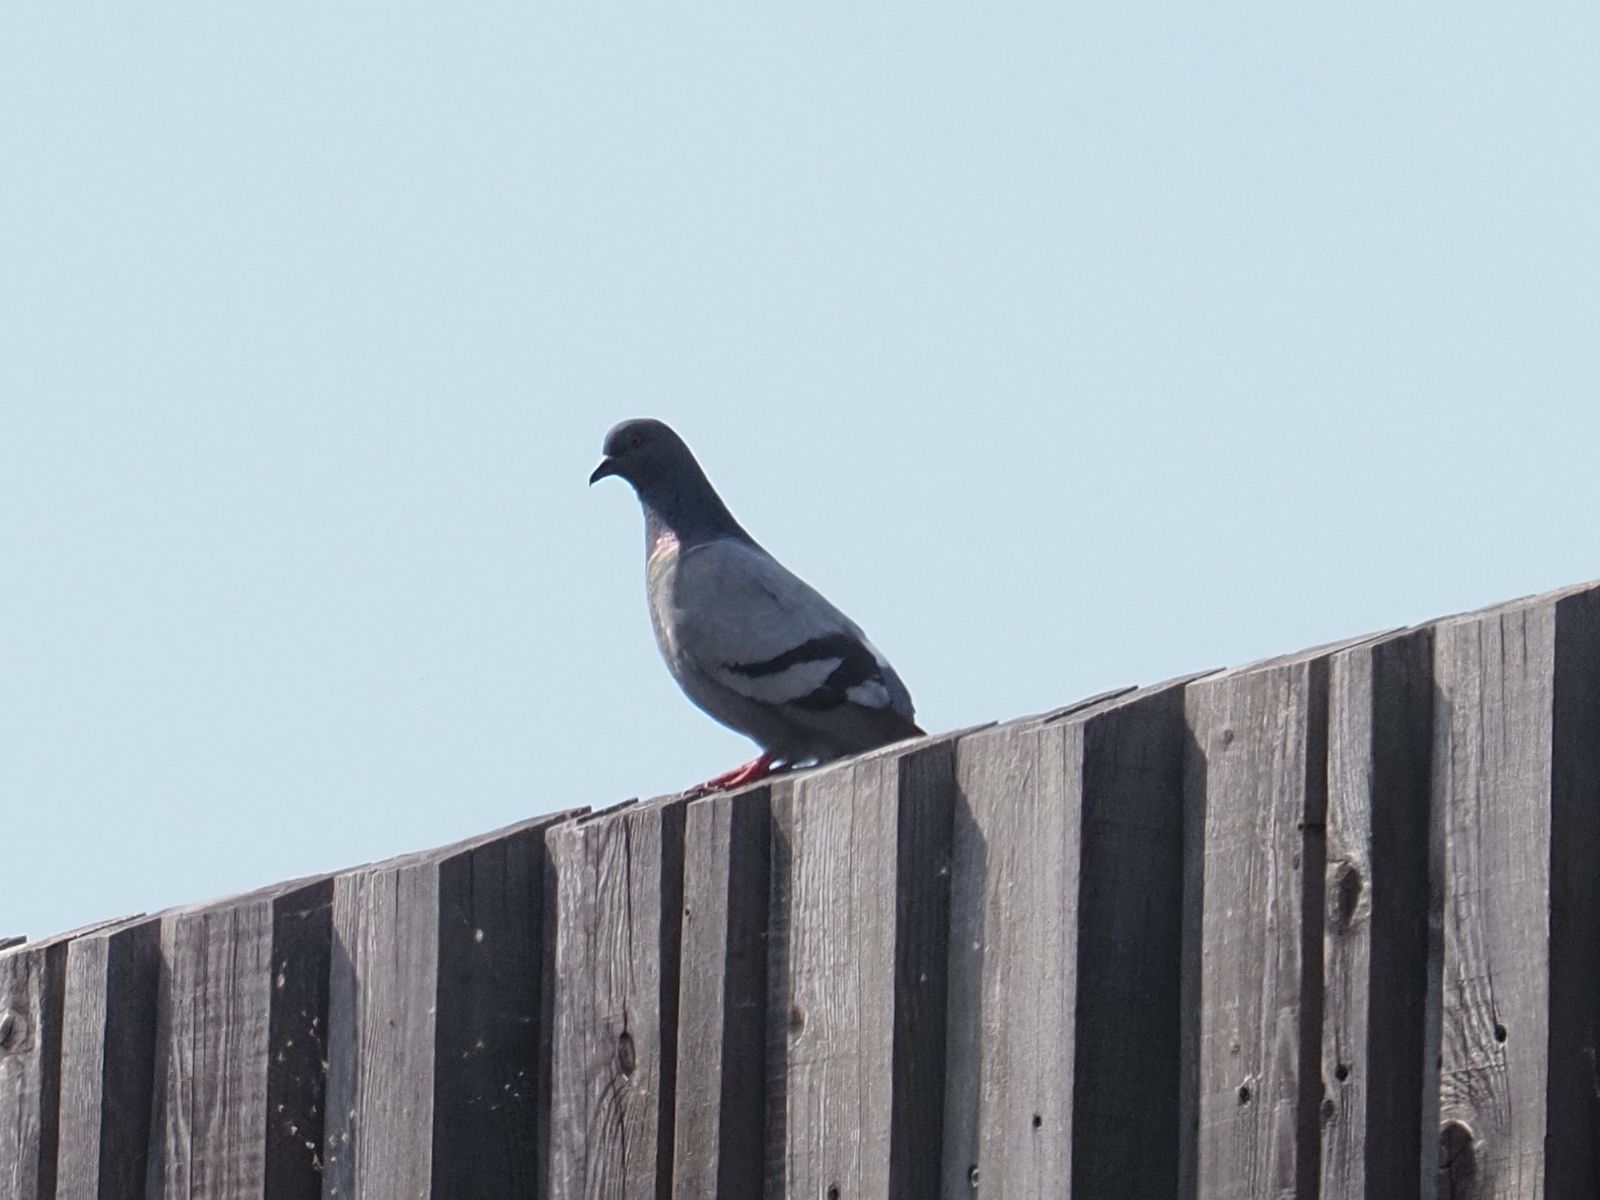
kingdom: Animalia
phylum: Chordata
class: Aves
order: Columbiformes
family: Columbidae
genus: Columba
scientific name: Columba livia
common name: Rock pigeon
